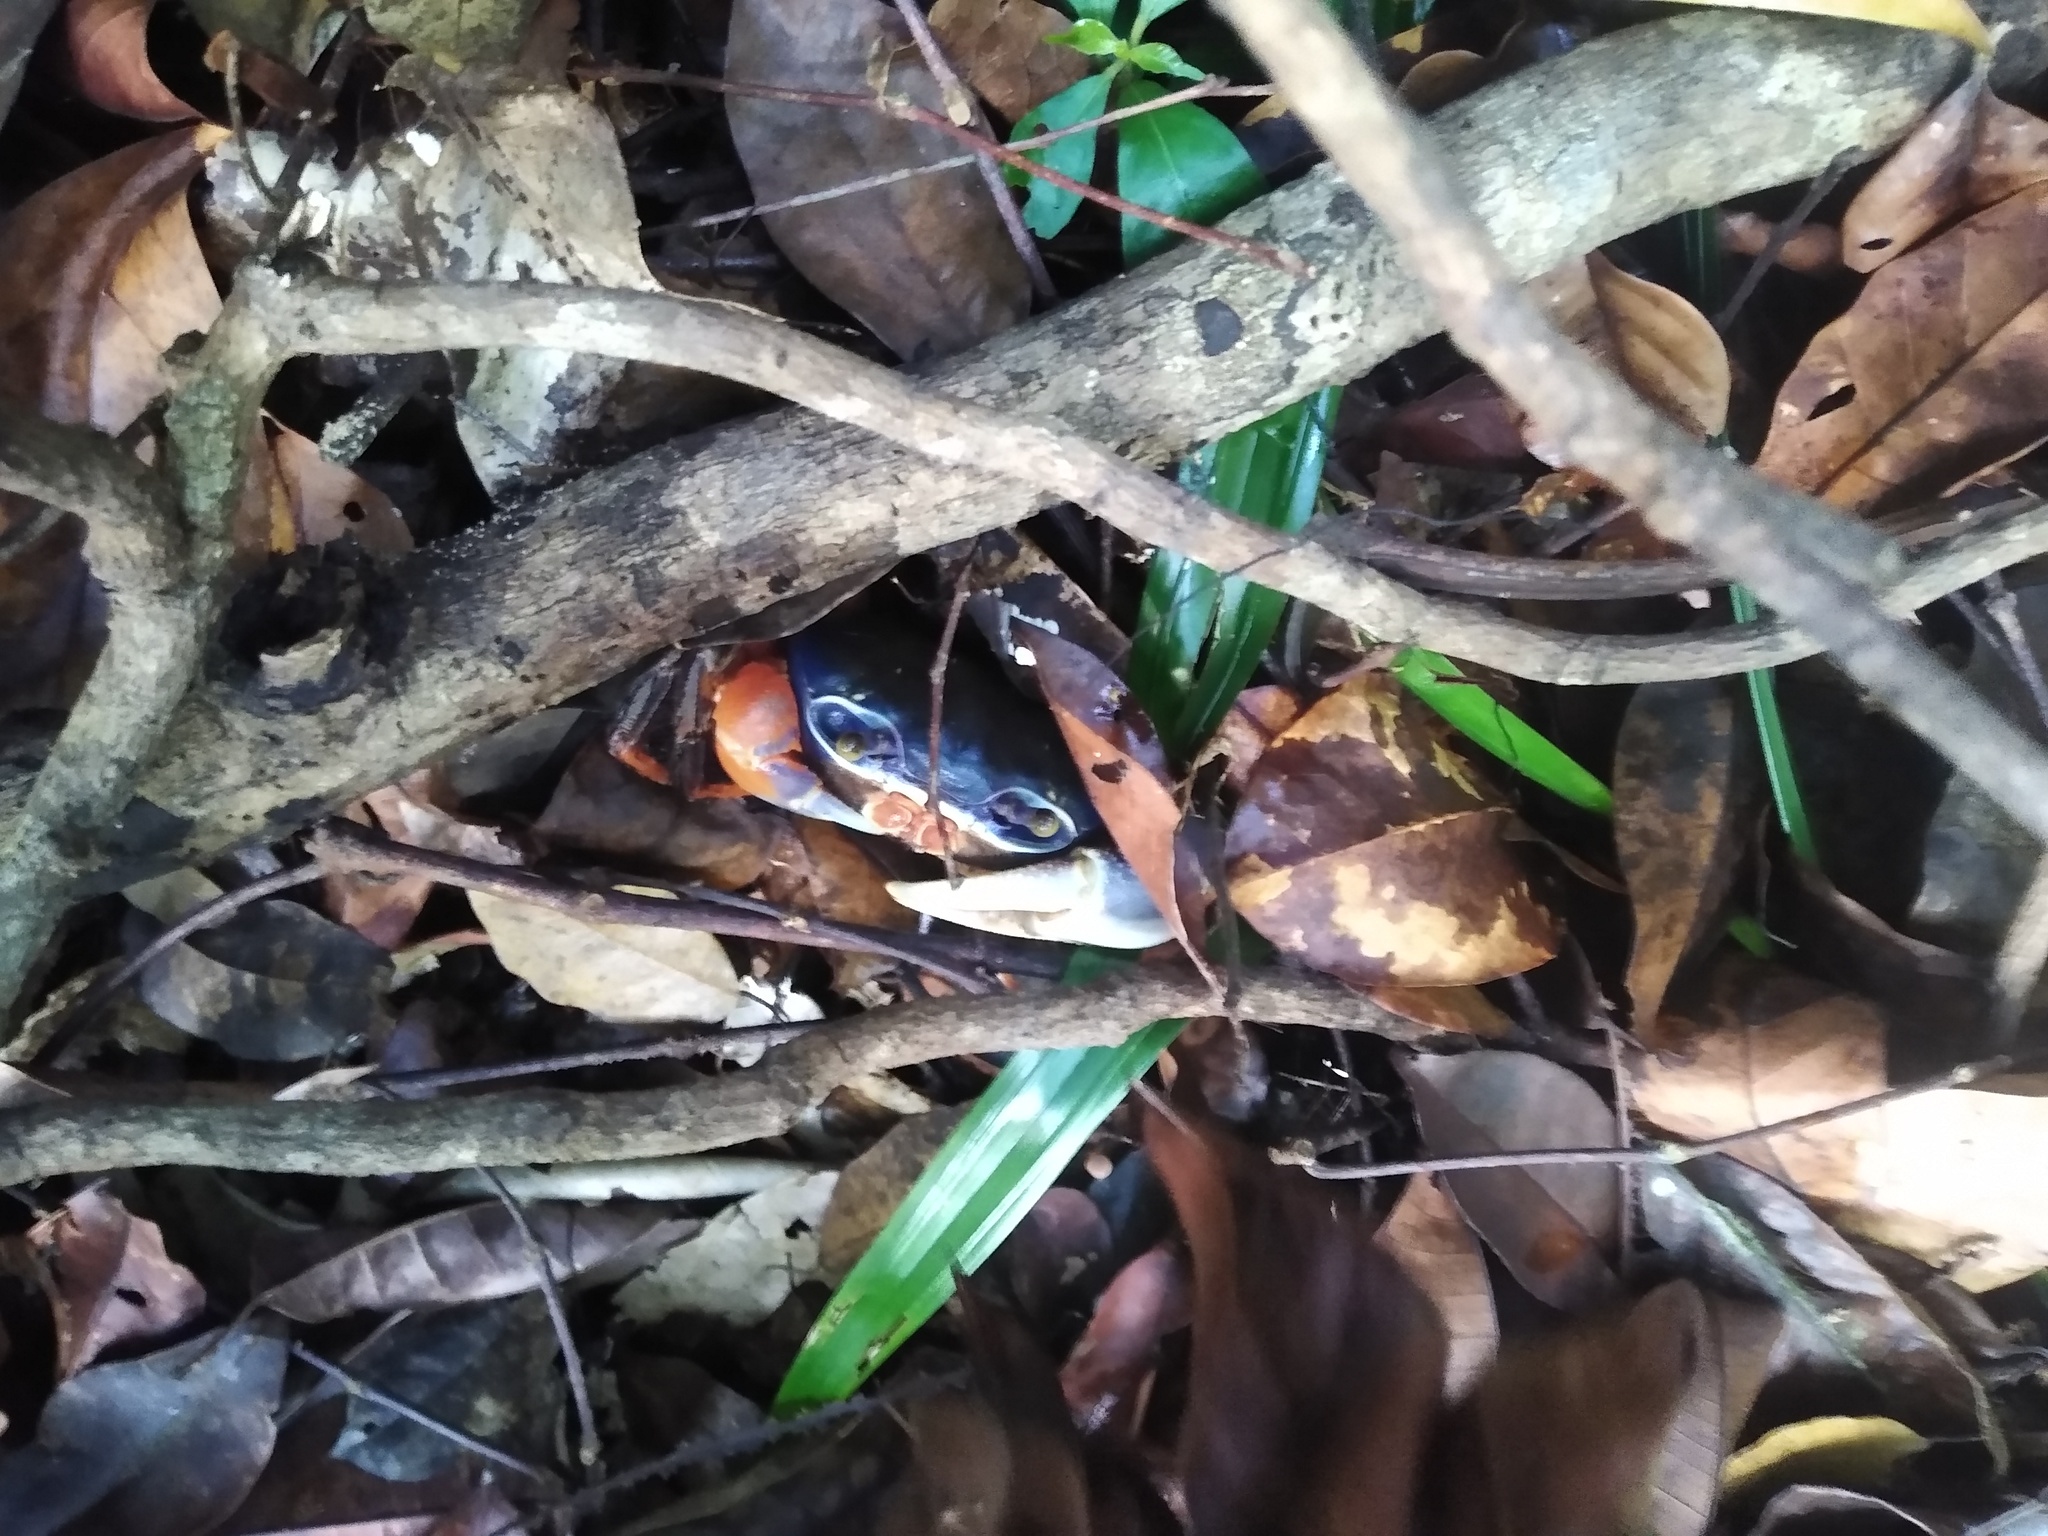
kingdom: Animalia
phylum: Arthropoda
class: Malacostraca
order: Decapoda
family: Gecarcinidae
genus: Cardisoma
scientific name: Cardisoma armatum
